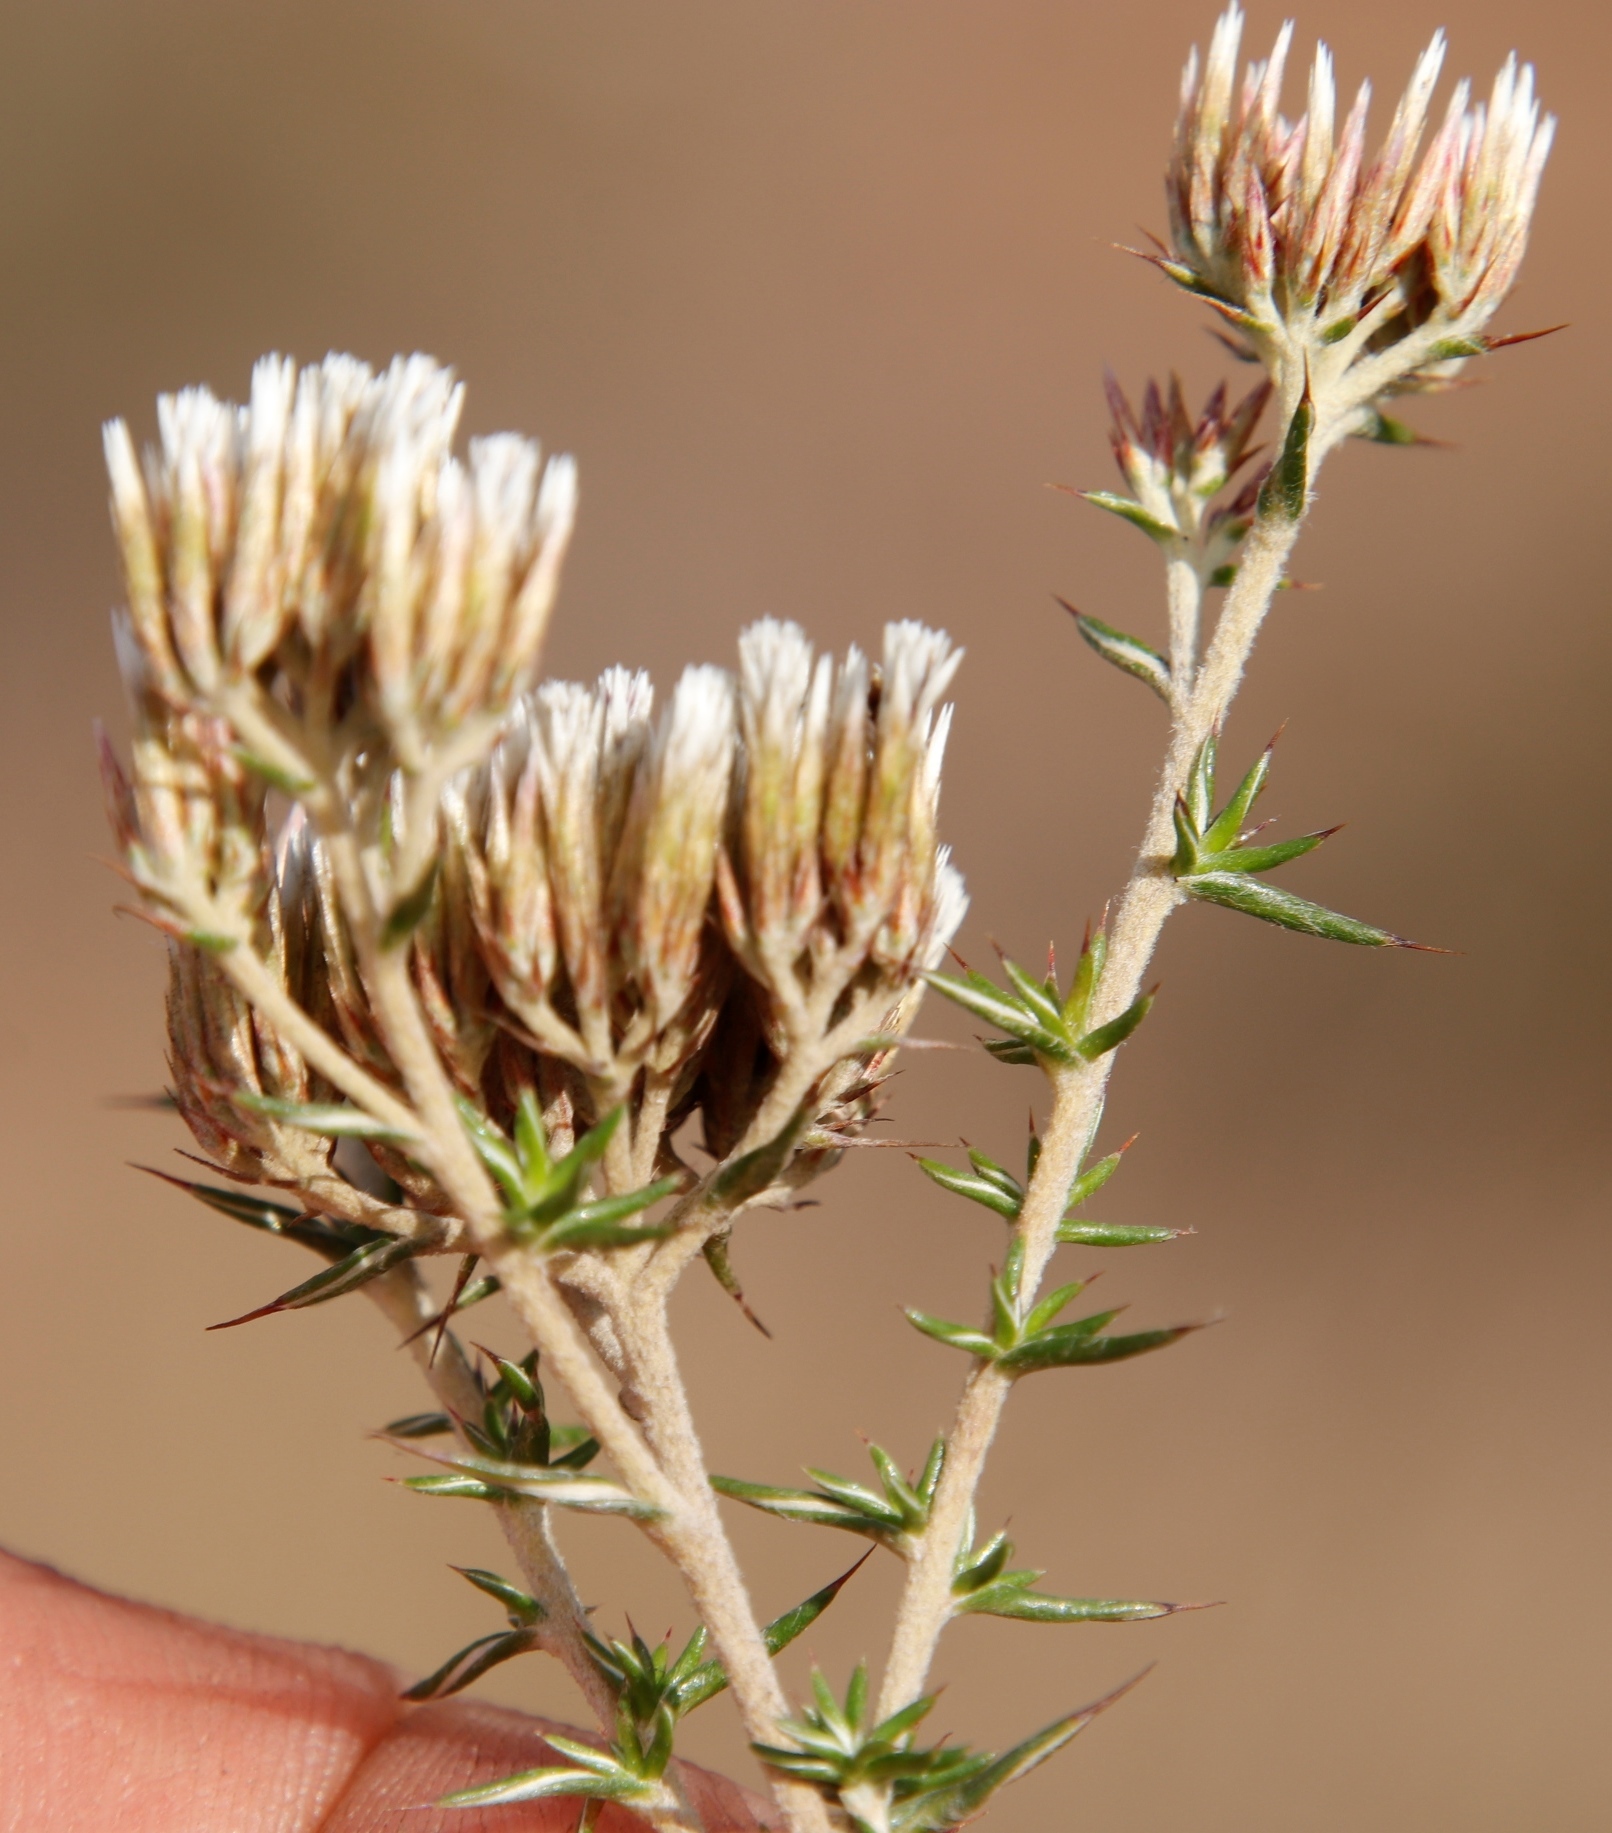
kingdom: Plantae
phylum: Tracheophyta
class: Magnoliopsida
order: Asterales
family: Asteraceae
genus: Metalasia
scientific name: Metalasia acuta
